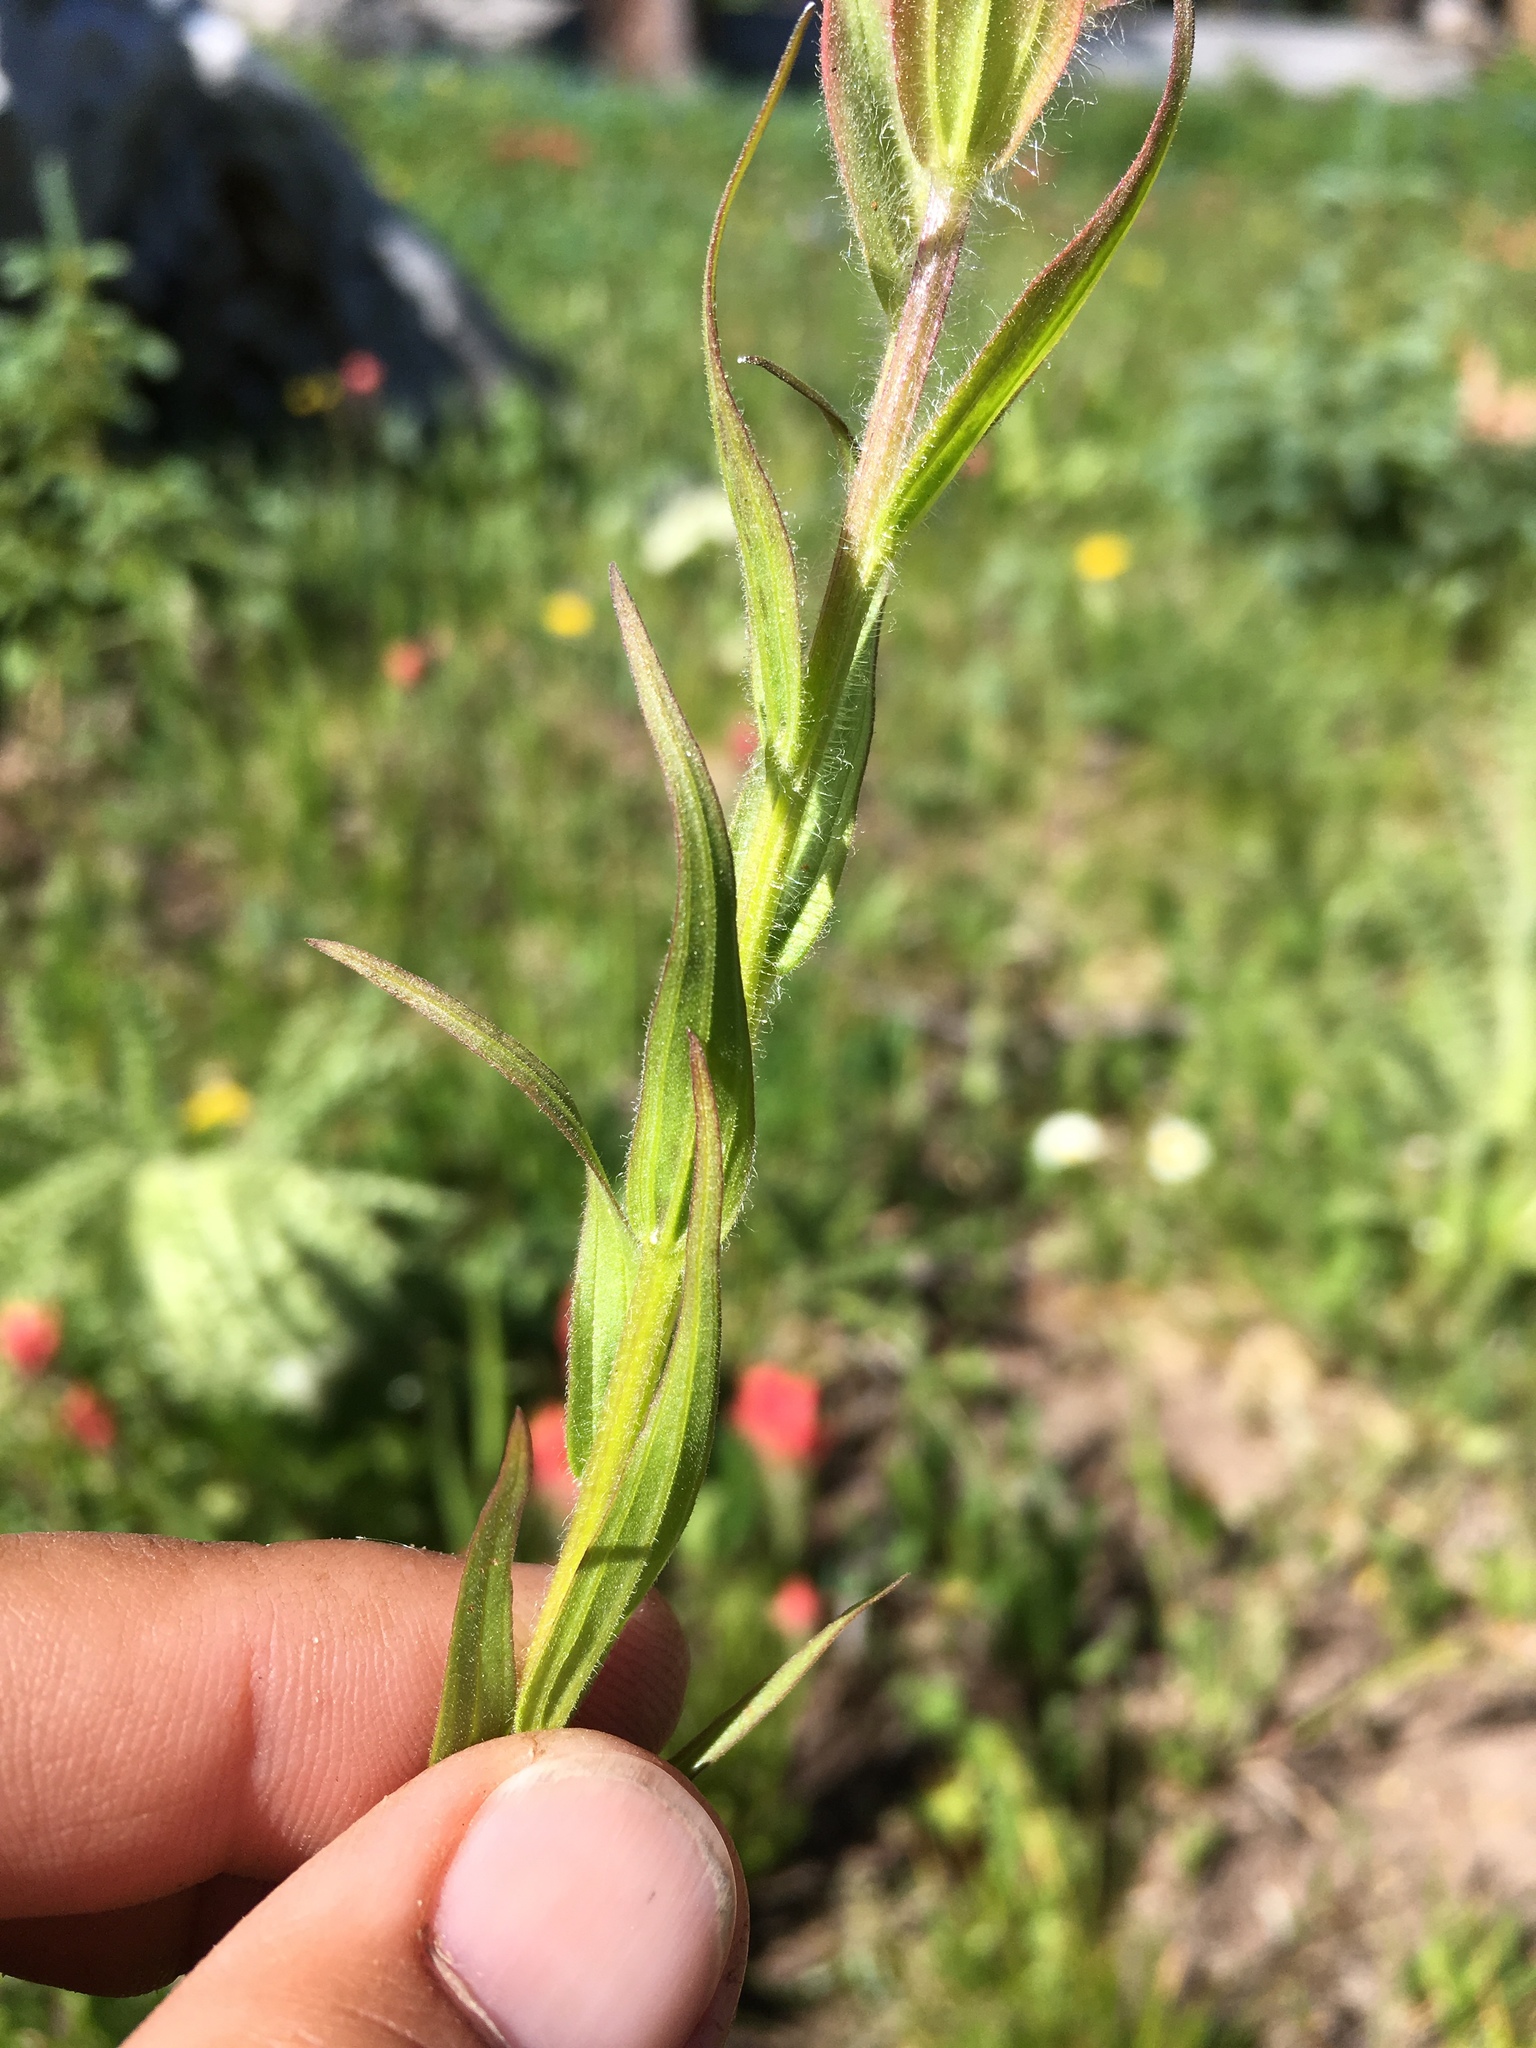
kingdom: Plantae
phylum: Tracheophyta
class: Magnoliopsida
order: Lamiales
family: Orobanchaceae
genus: Castilleja
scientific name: Castilleja rhexifolia
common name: Rocky mountain paintbrush
